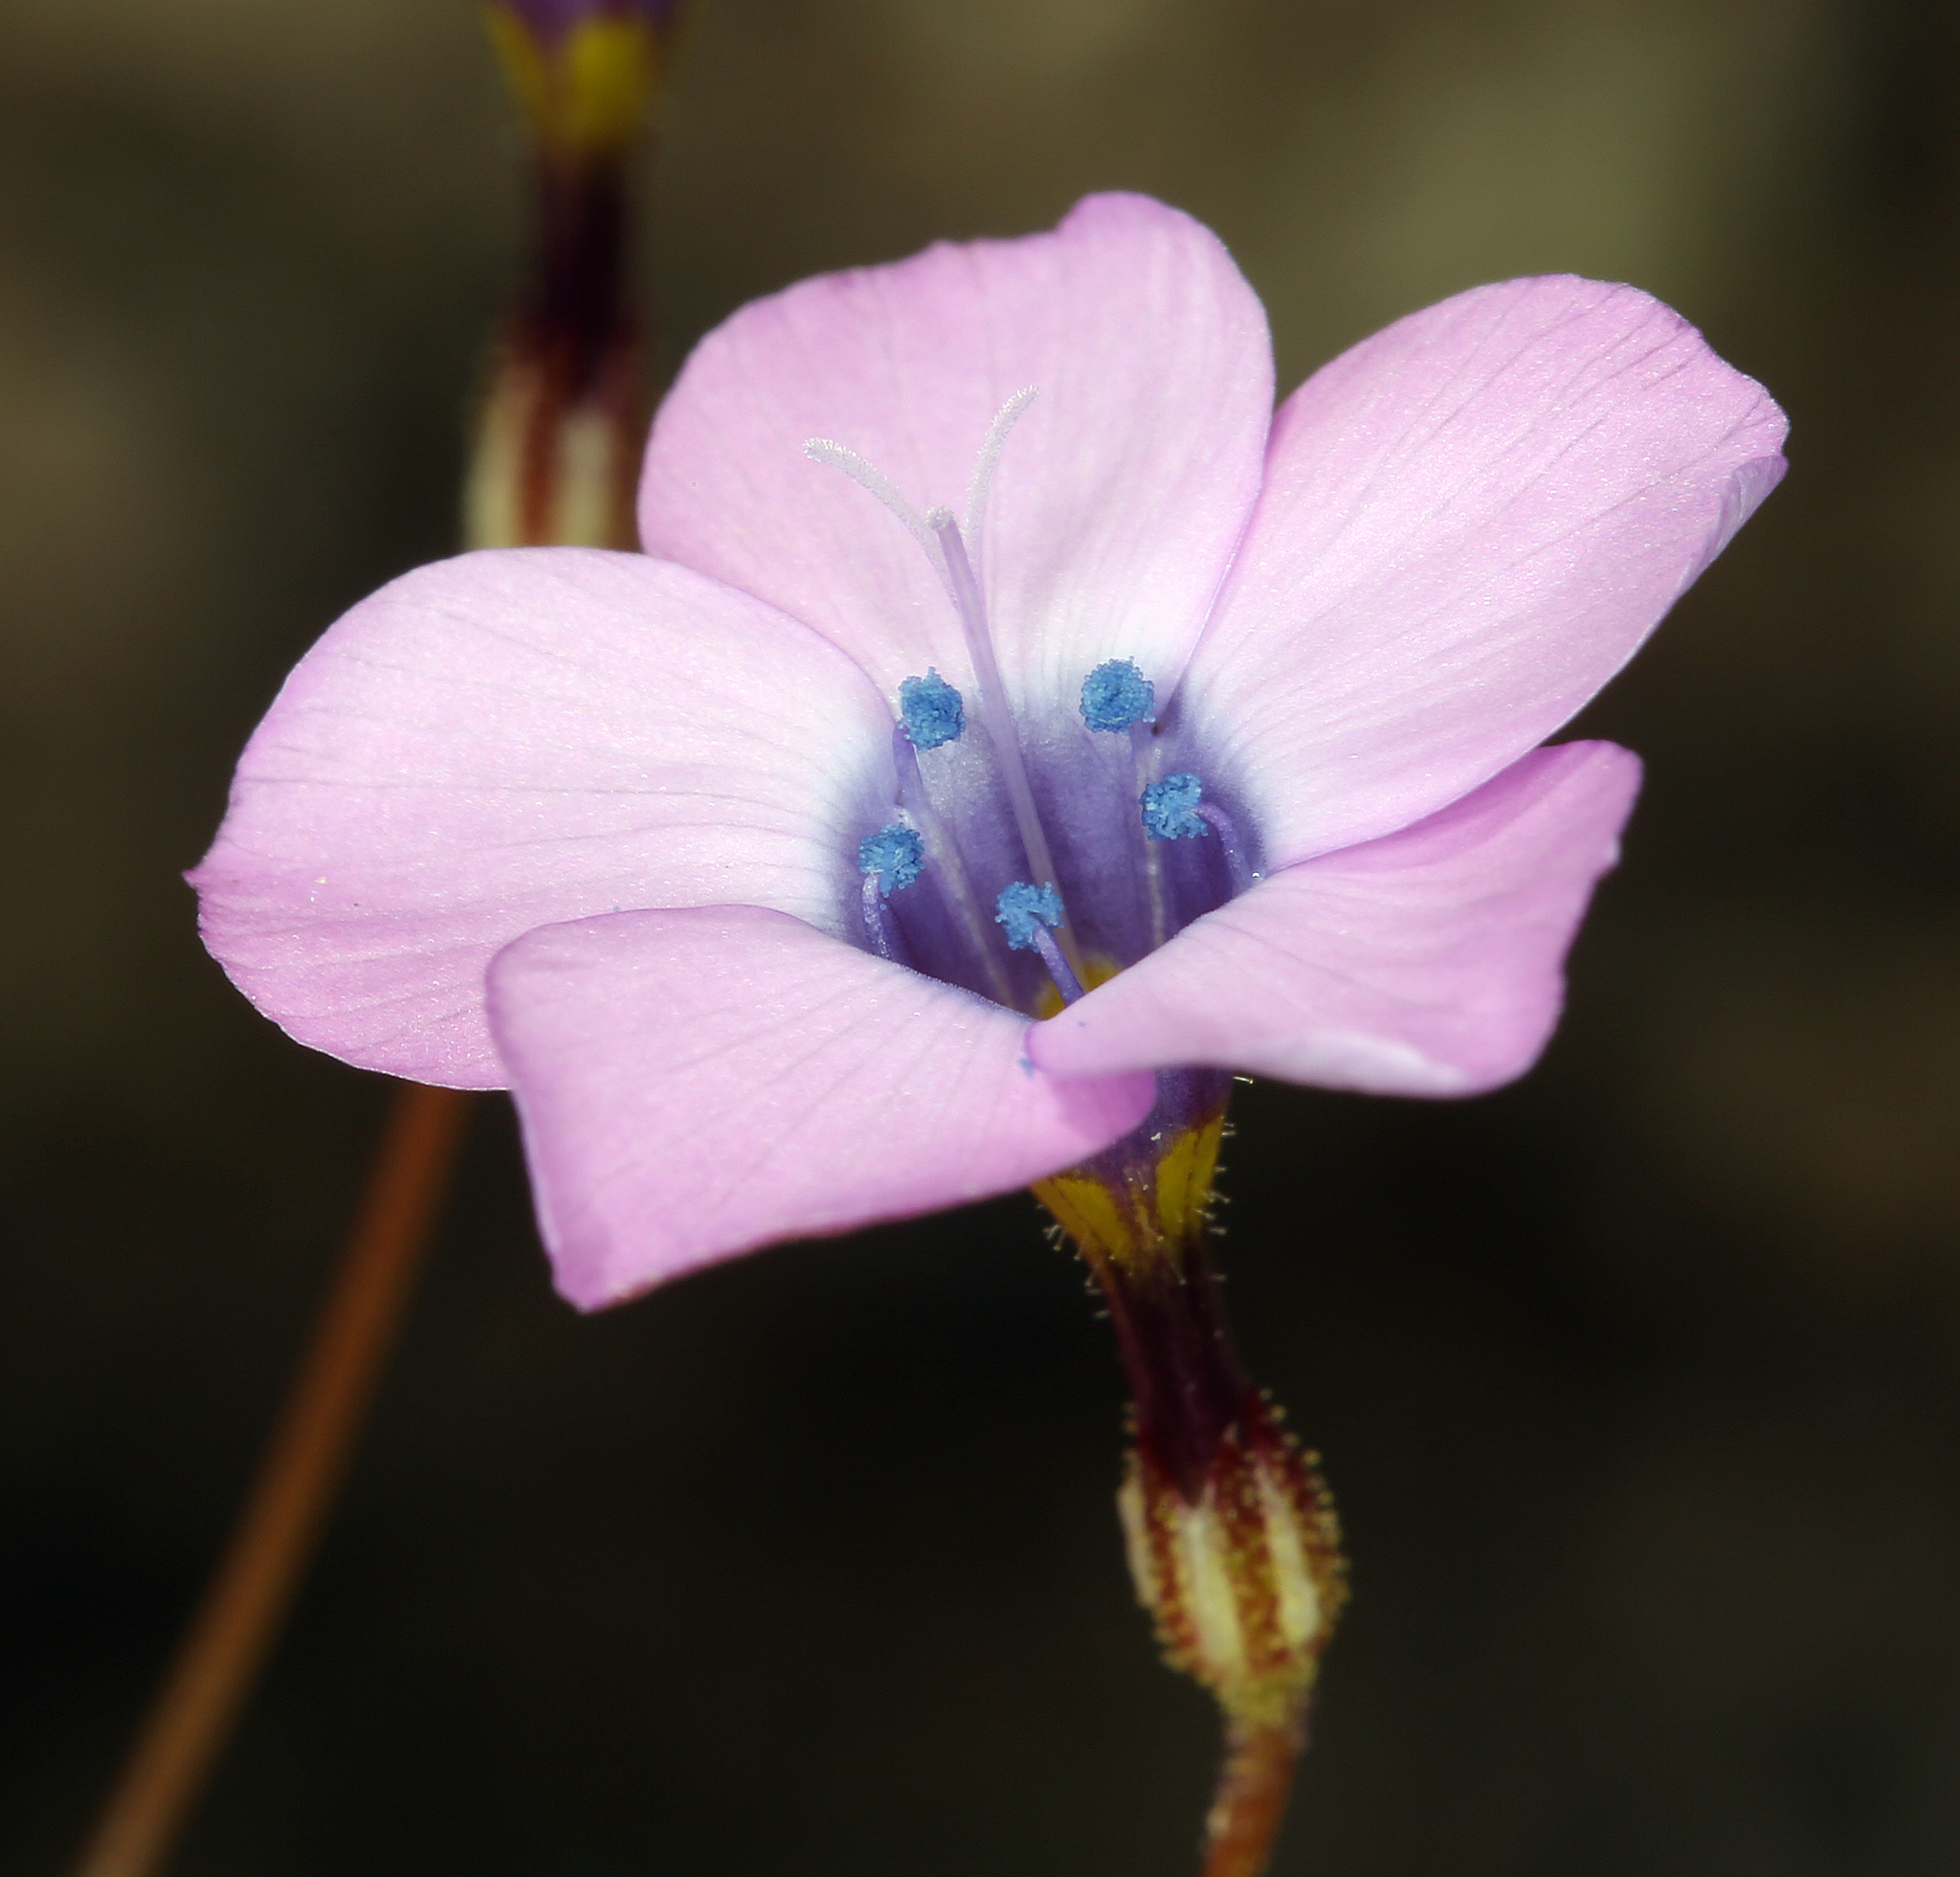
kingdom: Plantae
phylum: Tracheophyta
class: Magnoliopsida
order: Ericales
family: Polemoniaceae
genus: Gilia
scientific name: Gilia cana
